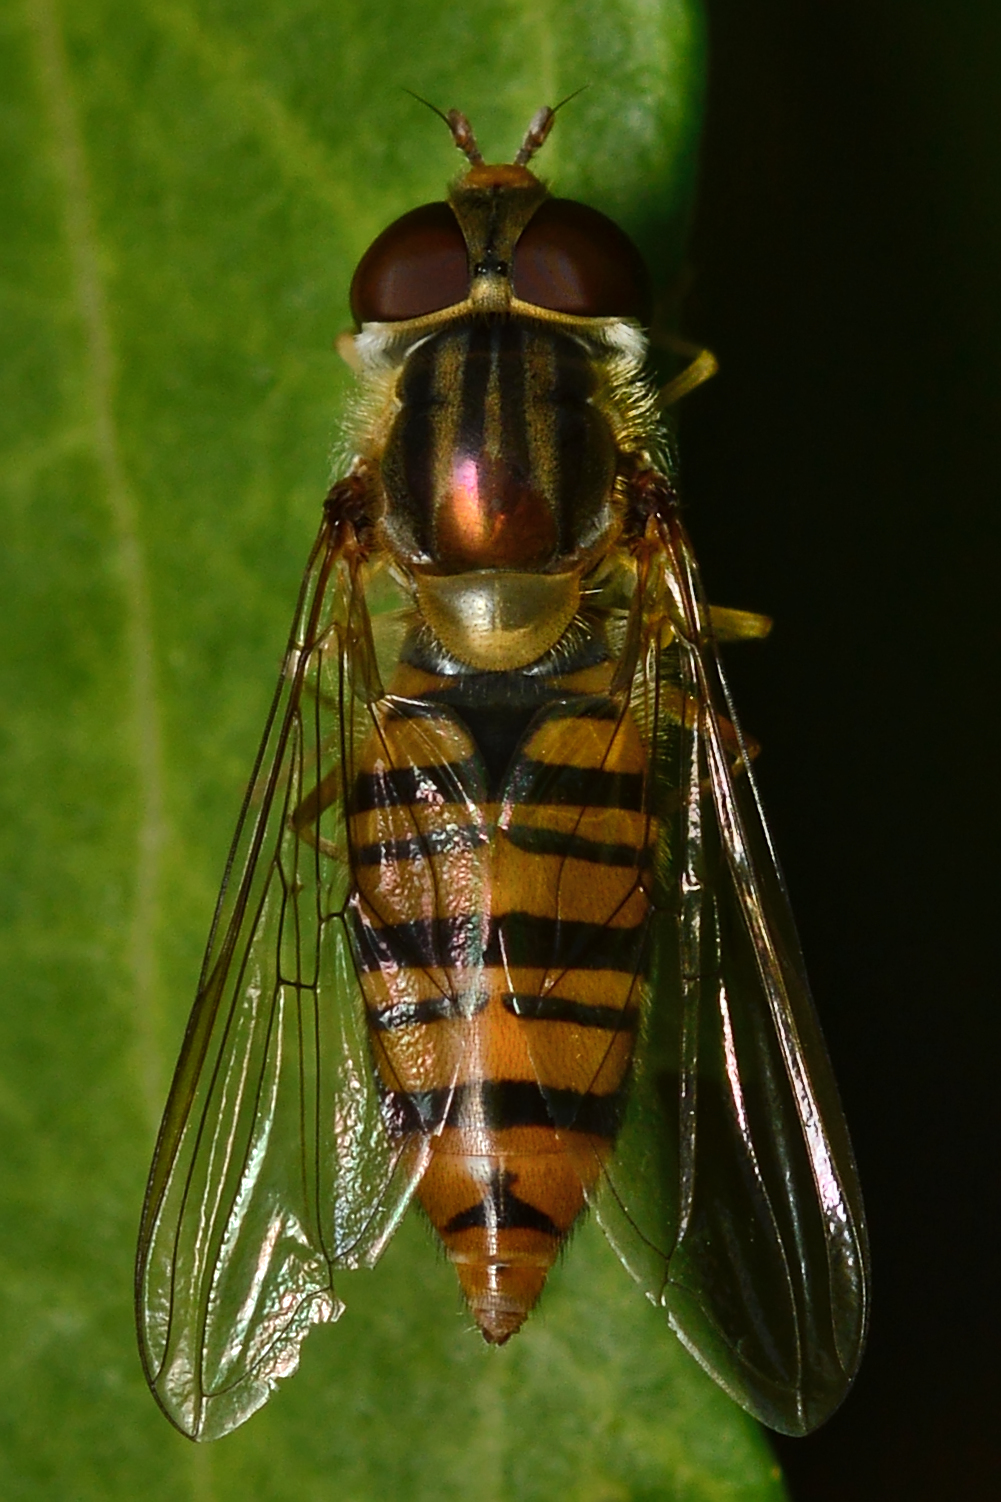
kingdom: Animalia
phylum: Arthropoda
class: Insecta
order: Diptera
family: Syrphidae
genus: Episyrphus
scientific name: Episyrphus balteatus
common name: Marmalade hoverfly
